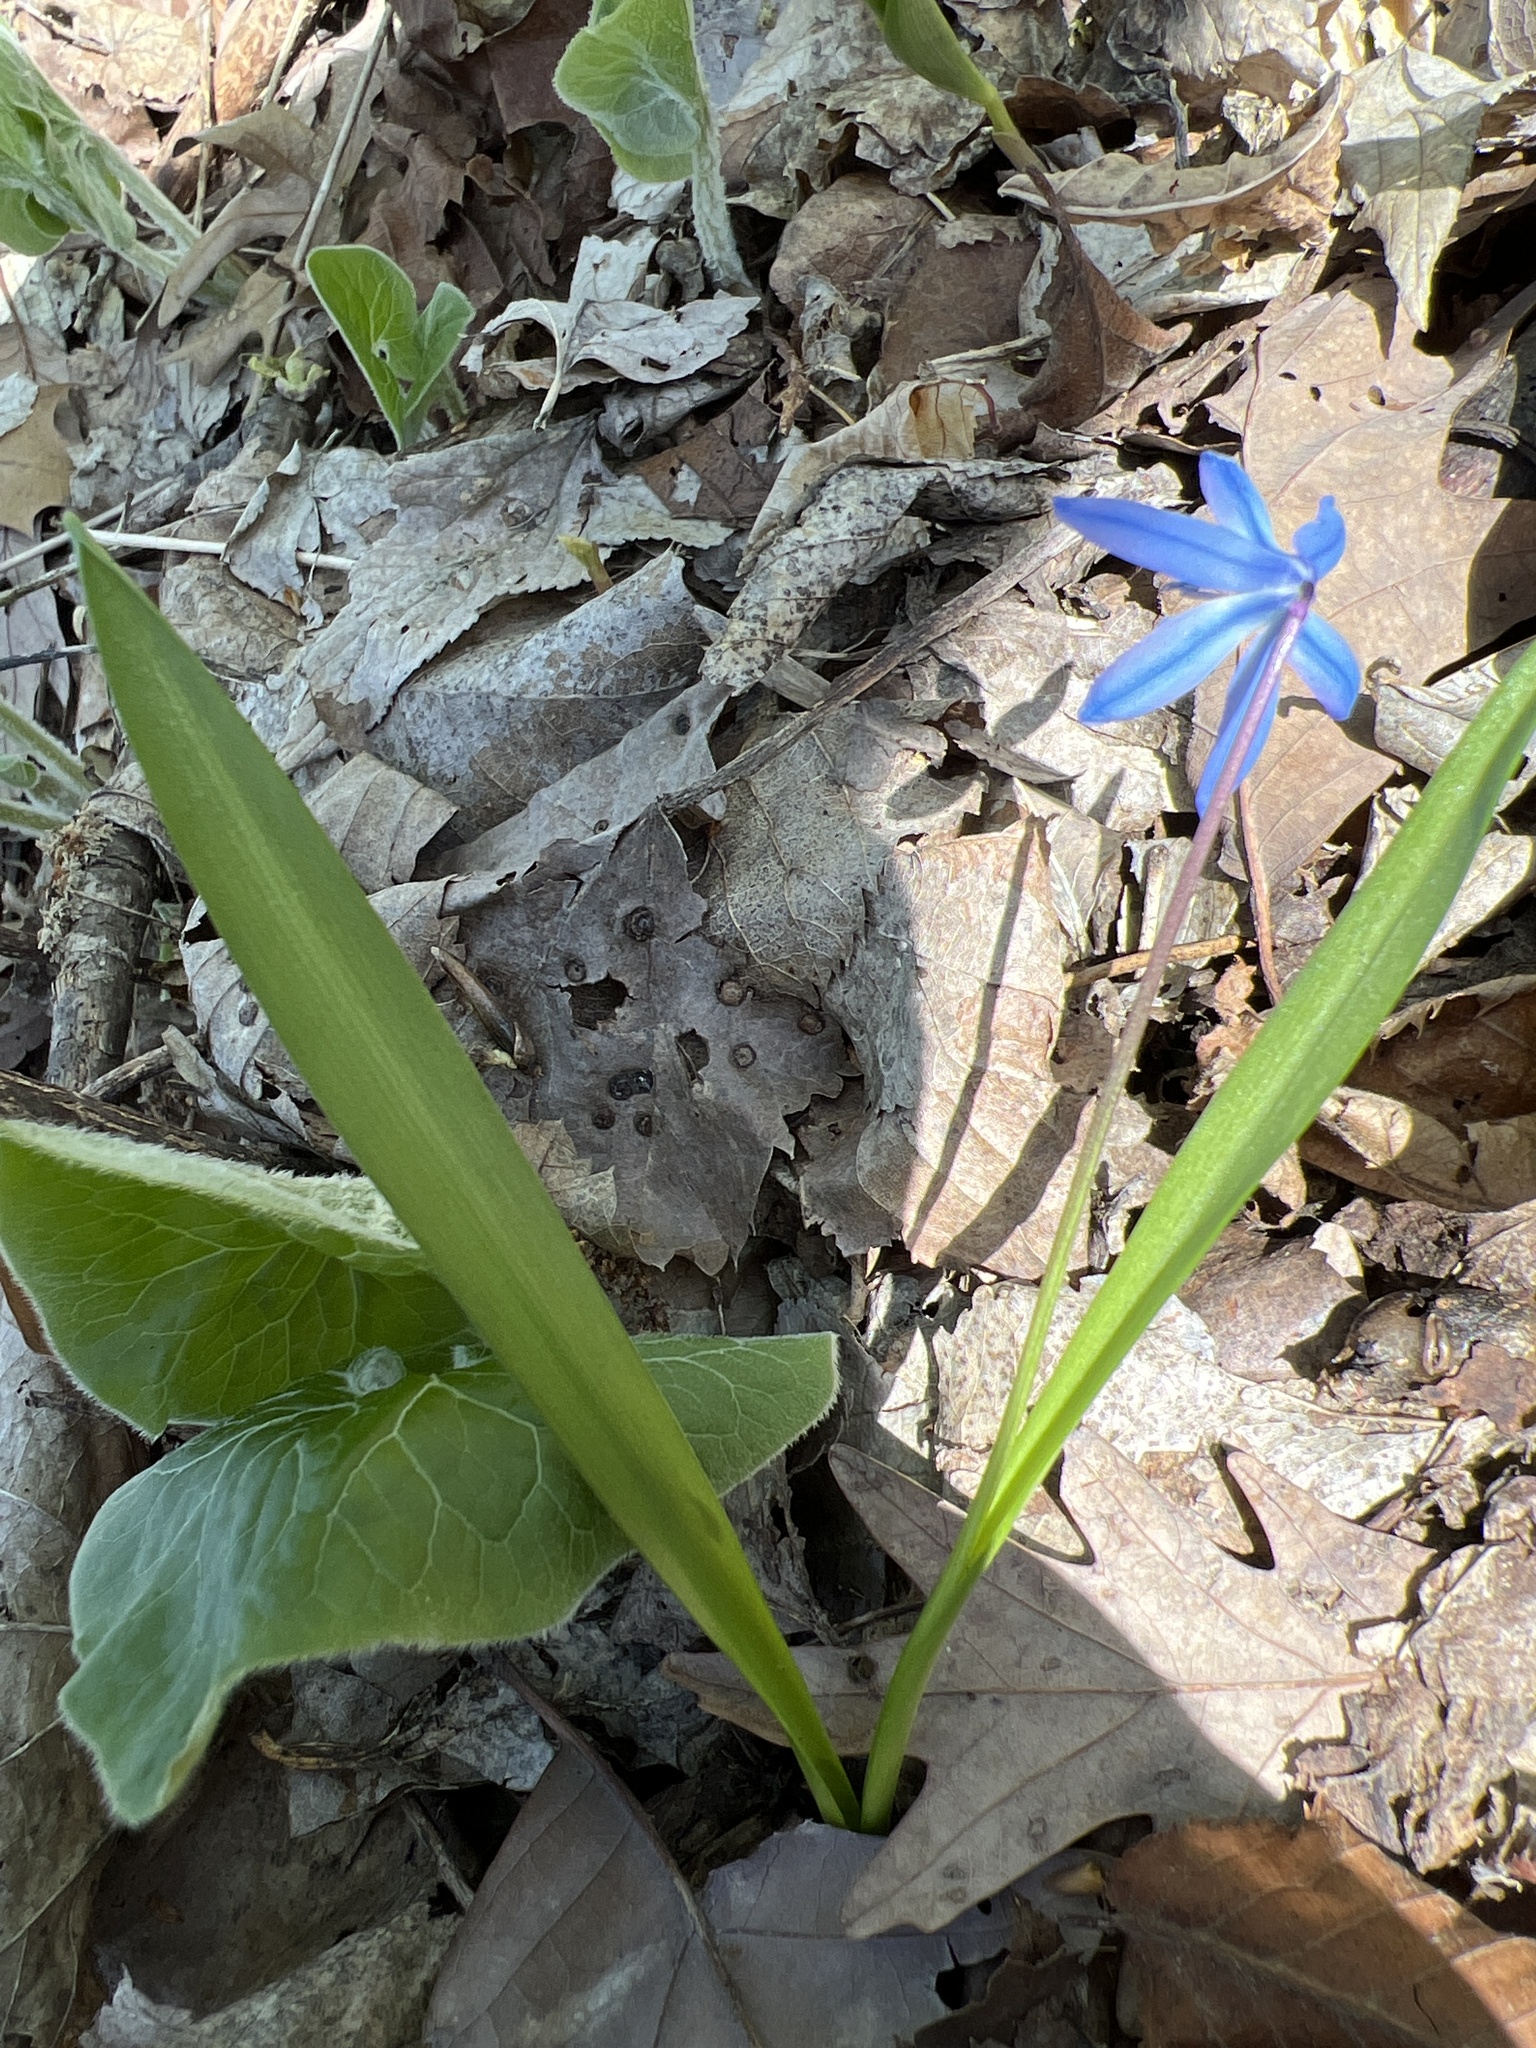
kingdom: Plantae
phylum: Tracheophyta
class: Liliopsida
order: Asparagales
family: Asparagaceae
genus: Scilla
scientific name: Scilla siberica
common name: Siberian squill
